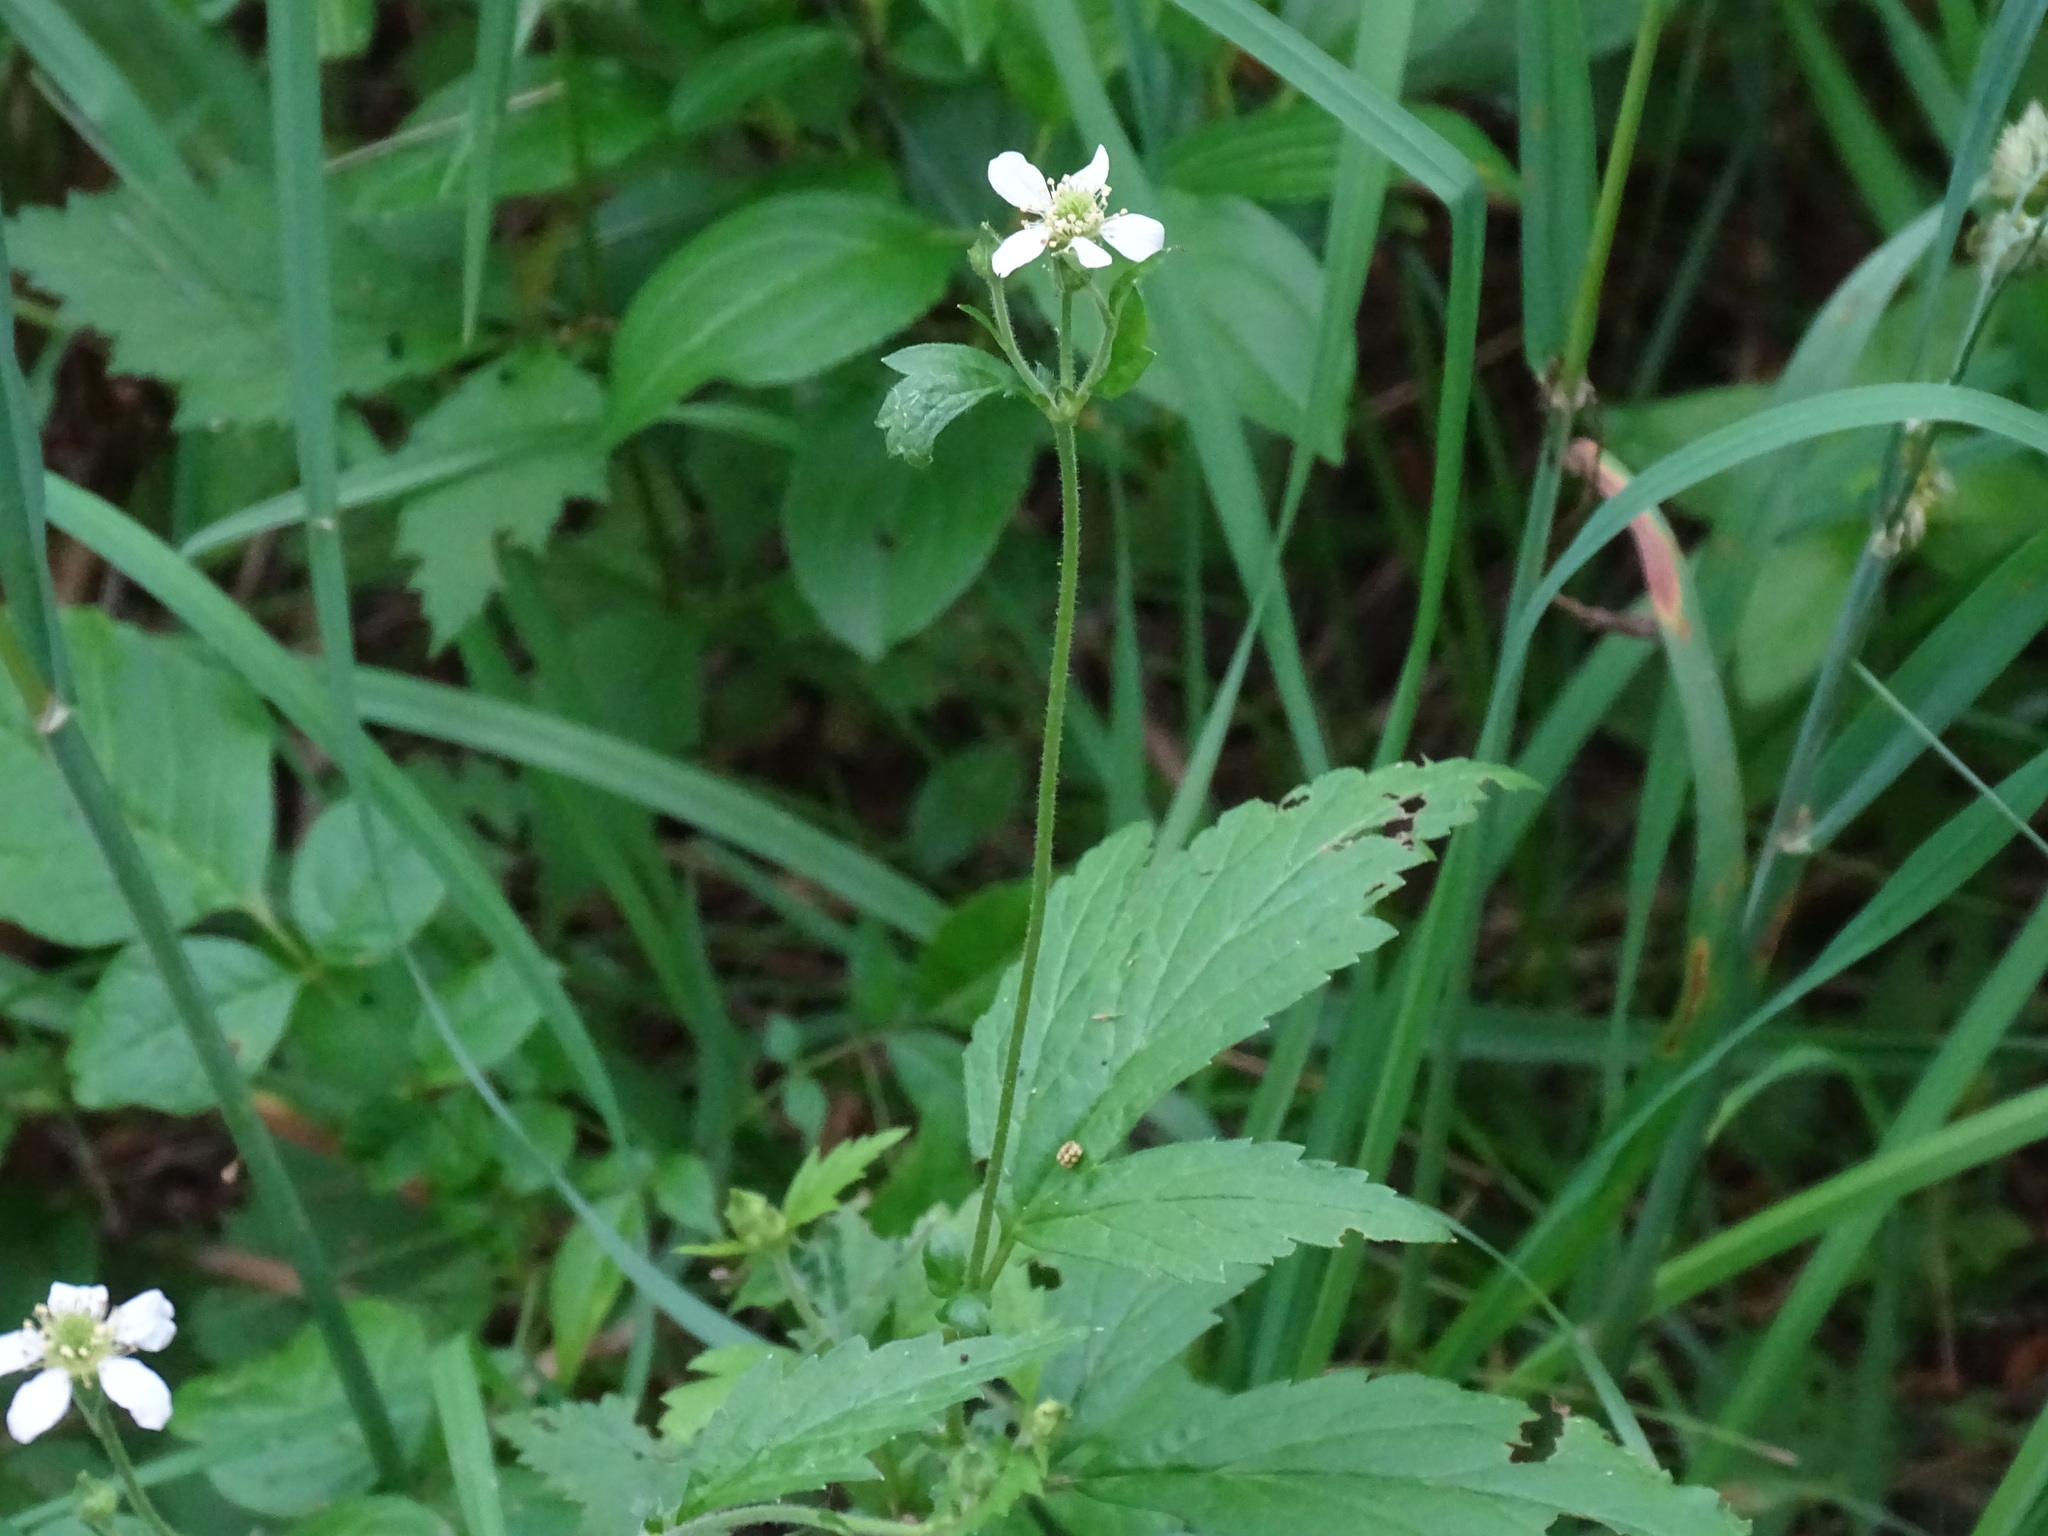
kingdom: Plantae
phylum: Tracheophyta
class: Magnoliopsida
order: Rosales
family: Rosaceae
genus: Geum
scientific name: Geum canadense
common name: White avens
